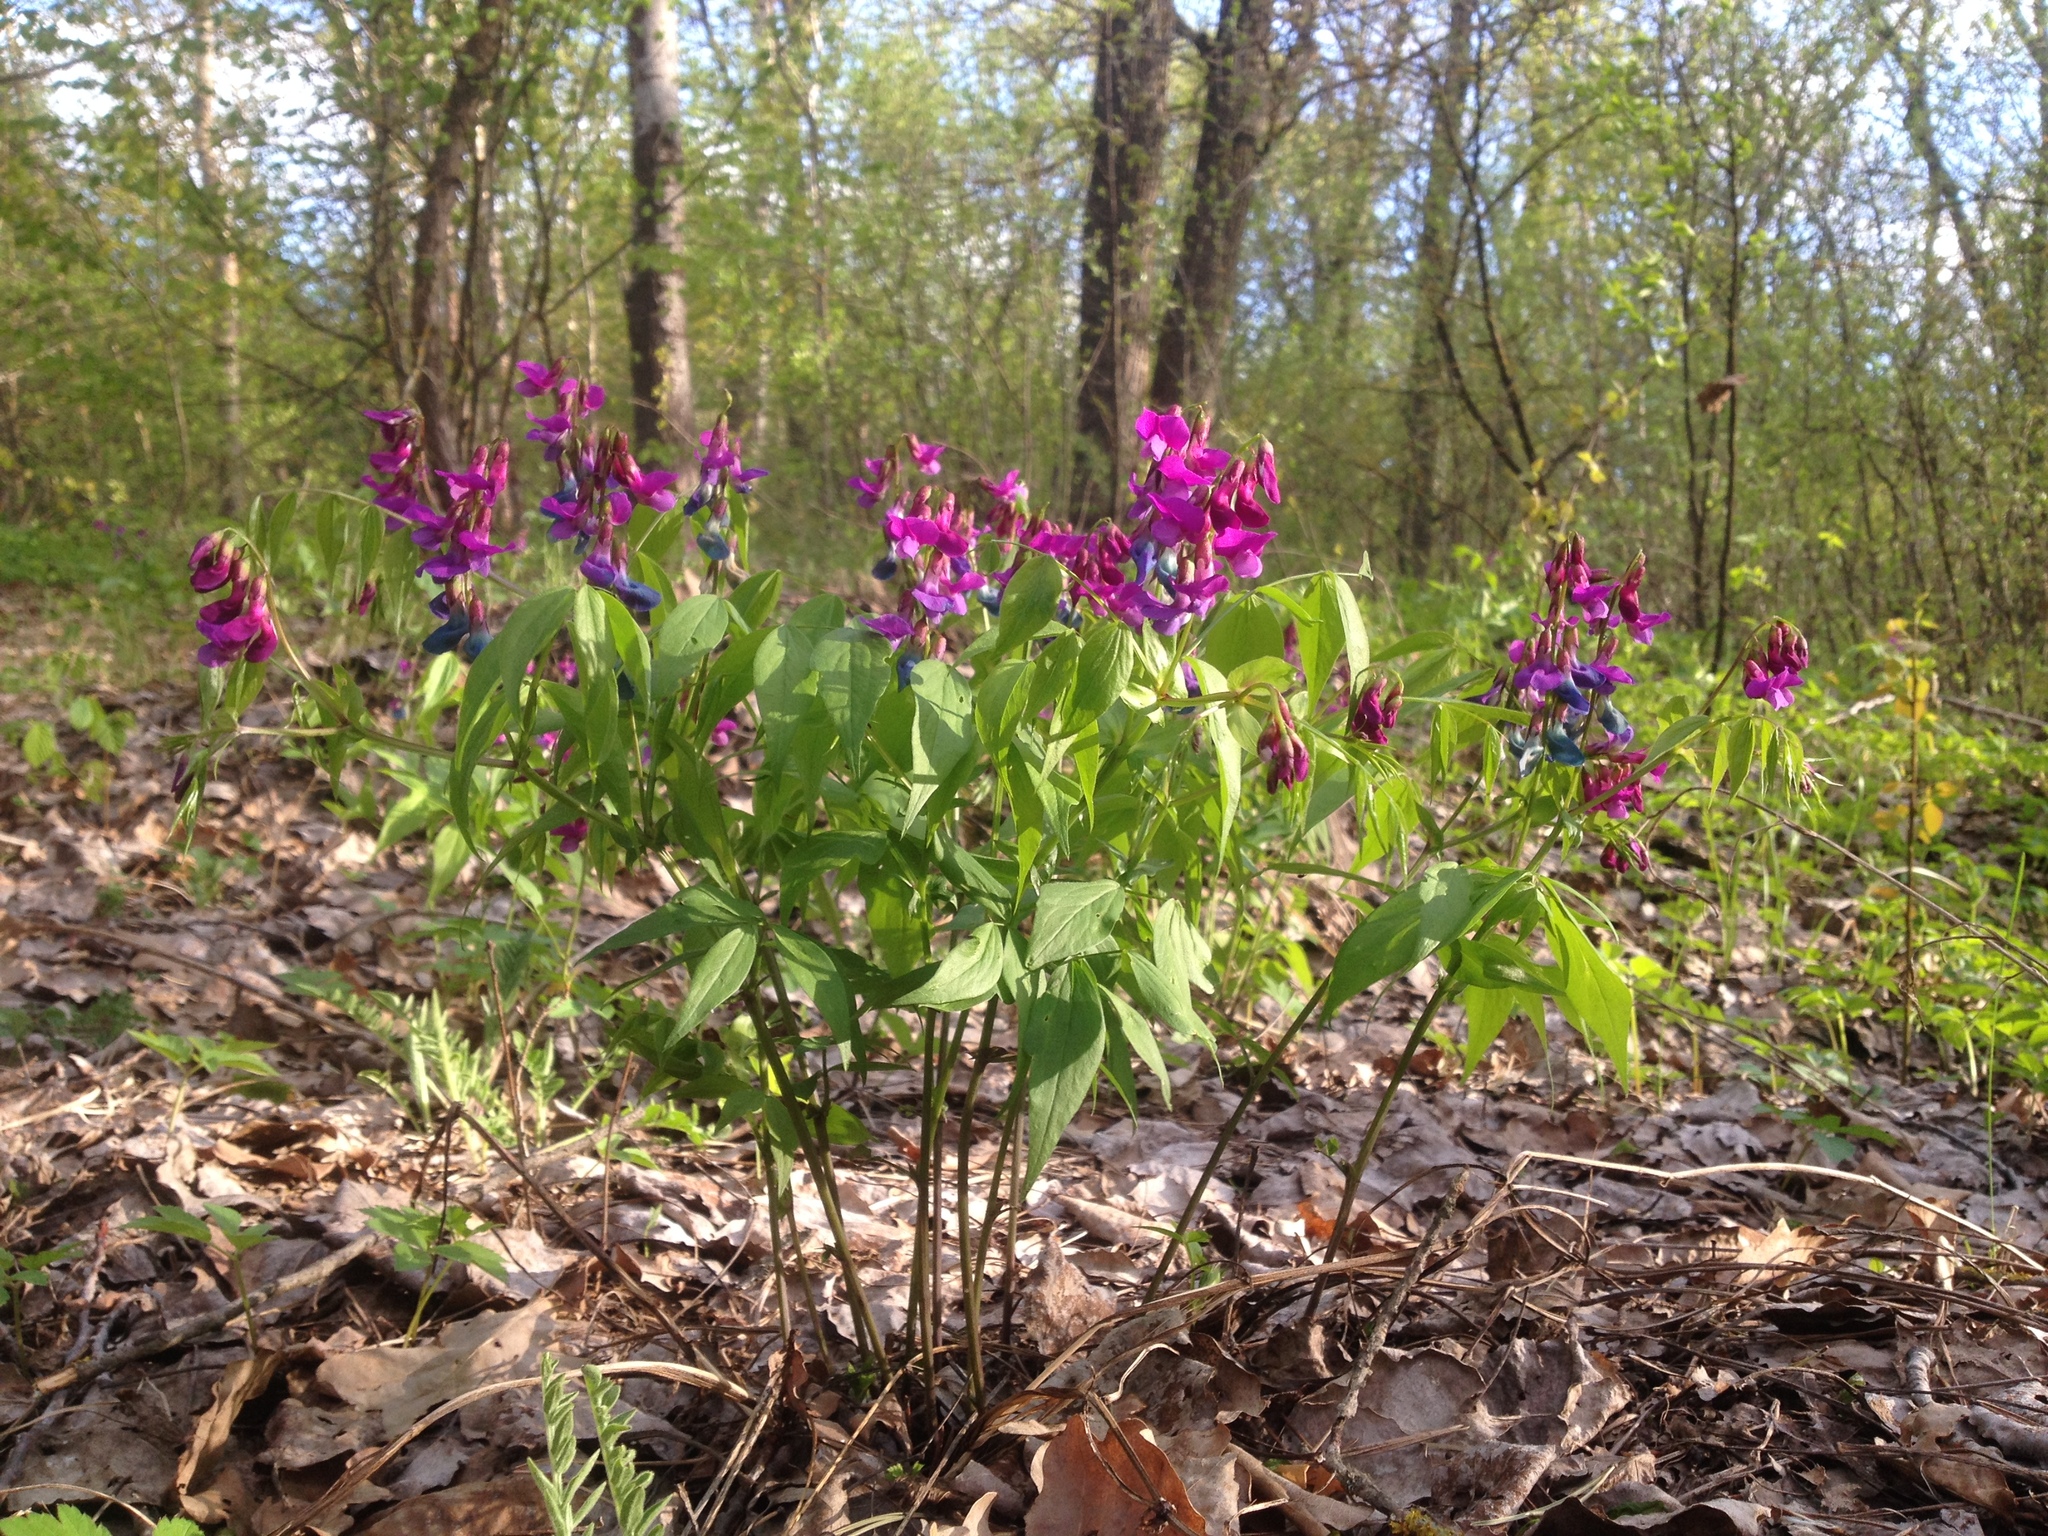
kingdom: Plantae
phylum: Tracheophyta
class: Magnoliopsida
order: Fabales
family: Fabaceae
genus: Lathyrus
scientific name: Lathyrus vernus
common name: Spring pea
